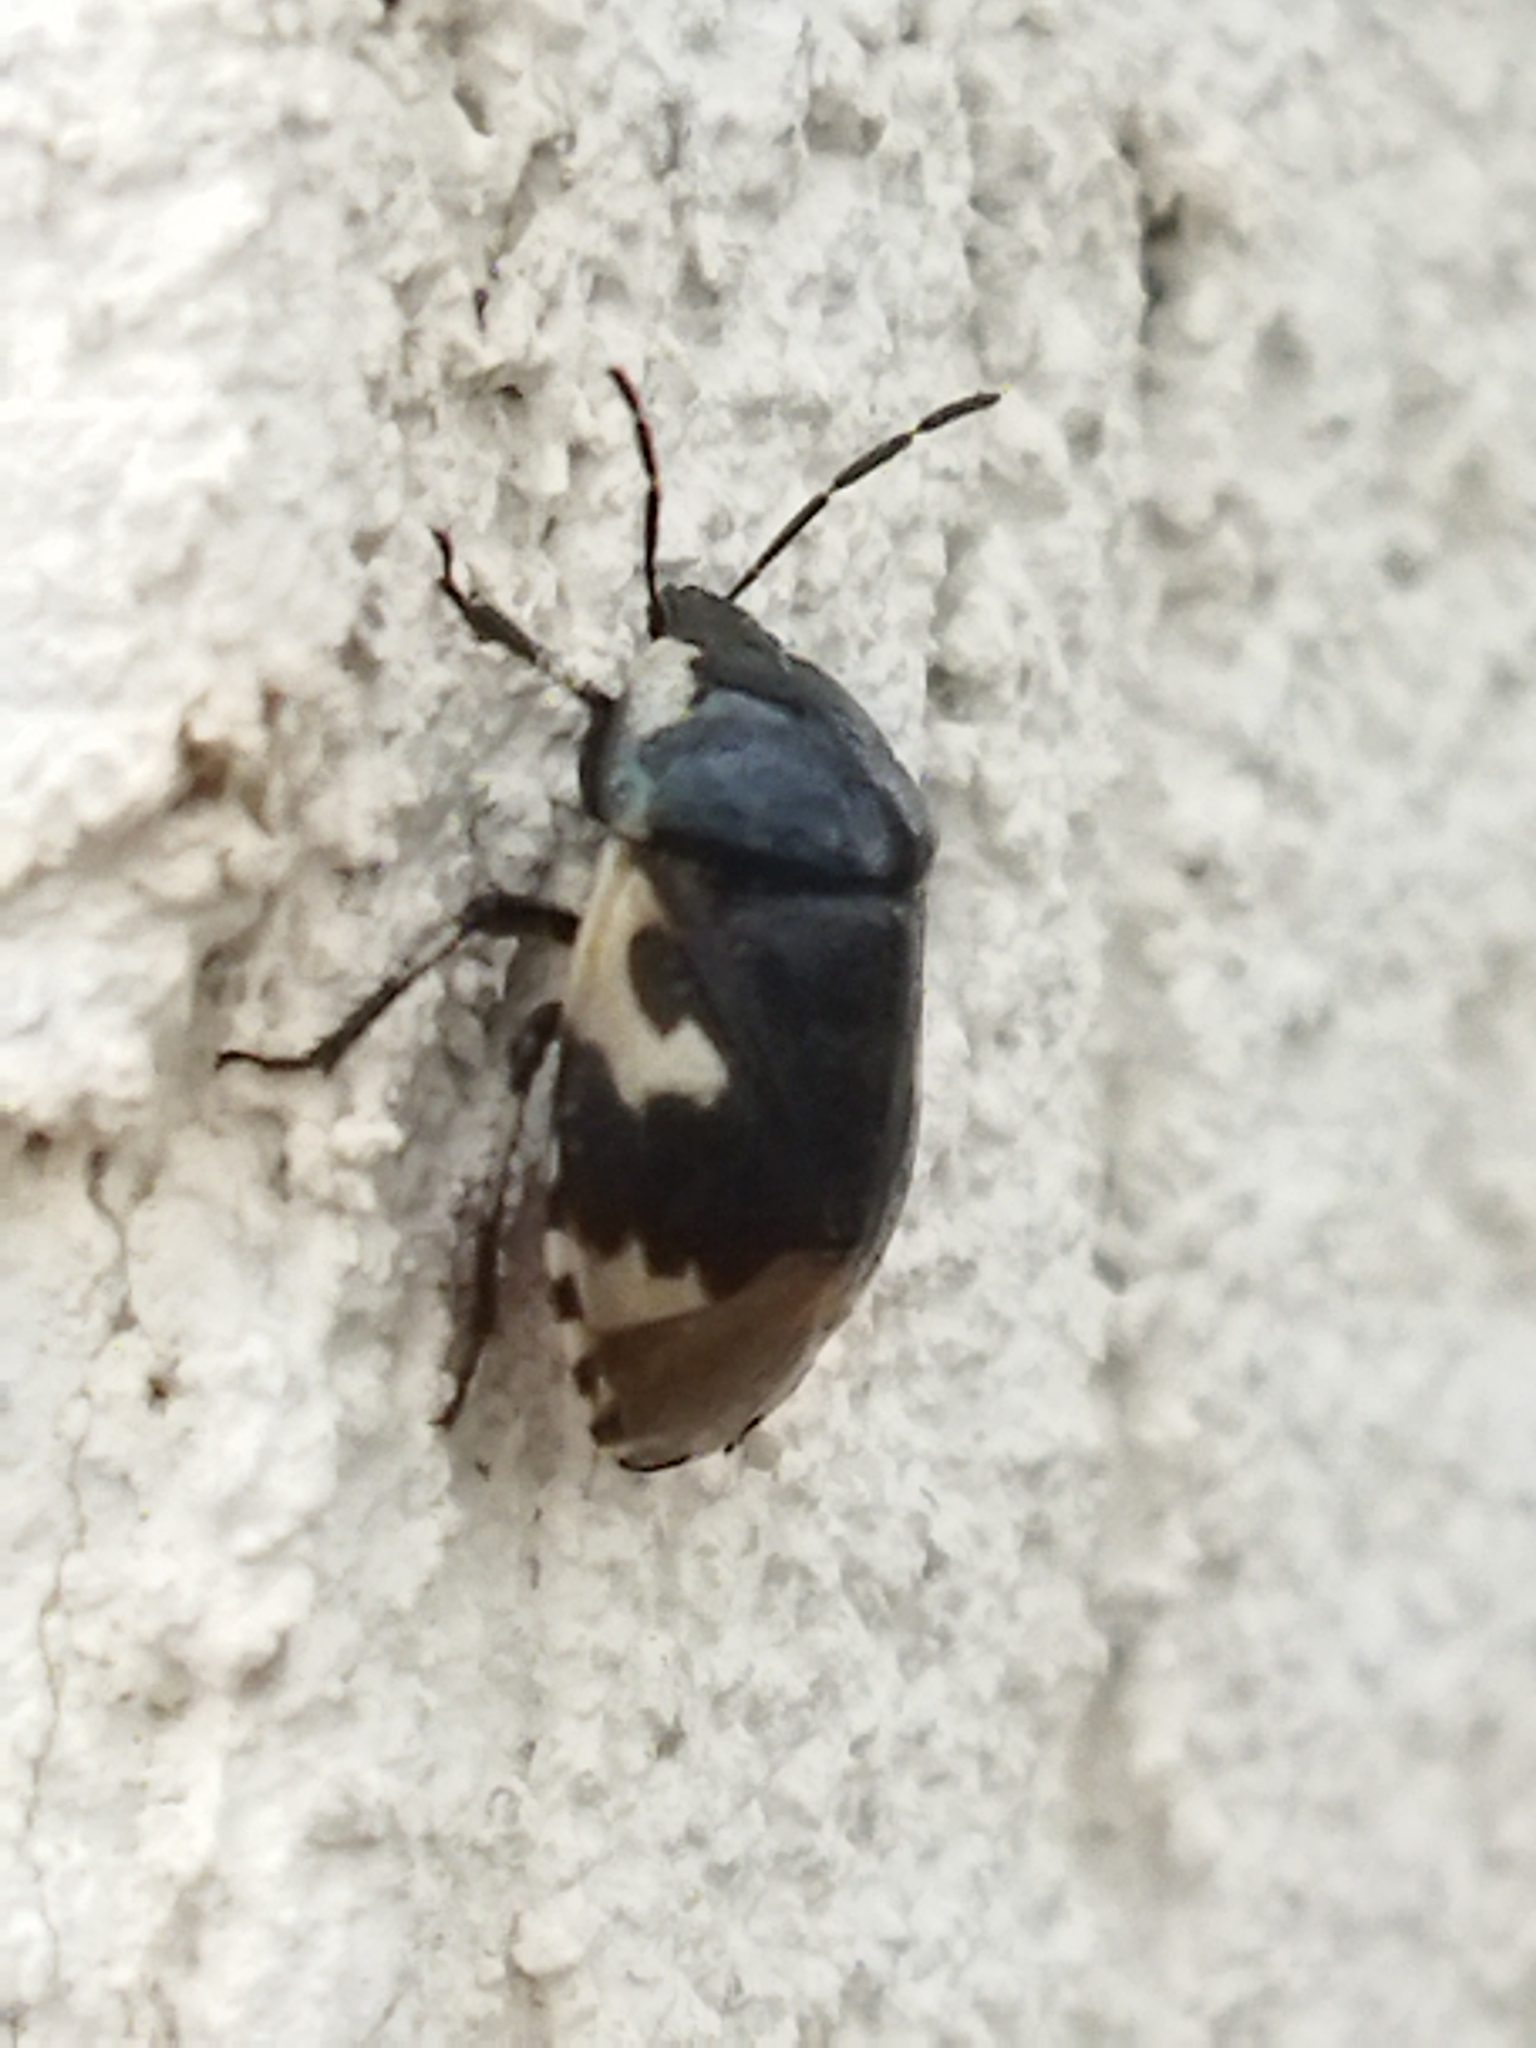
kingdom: Animalia
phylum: Arthropoda
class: Insecta
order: Hemiptera
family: Cydnidae
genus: Tritomegas
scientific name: Tritomegas bicolor
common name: Pied shieldbug
